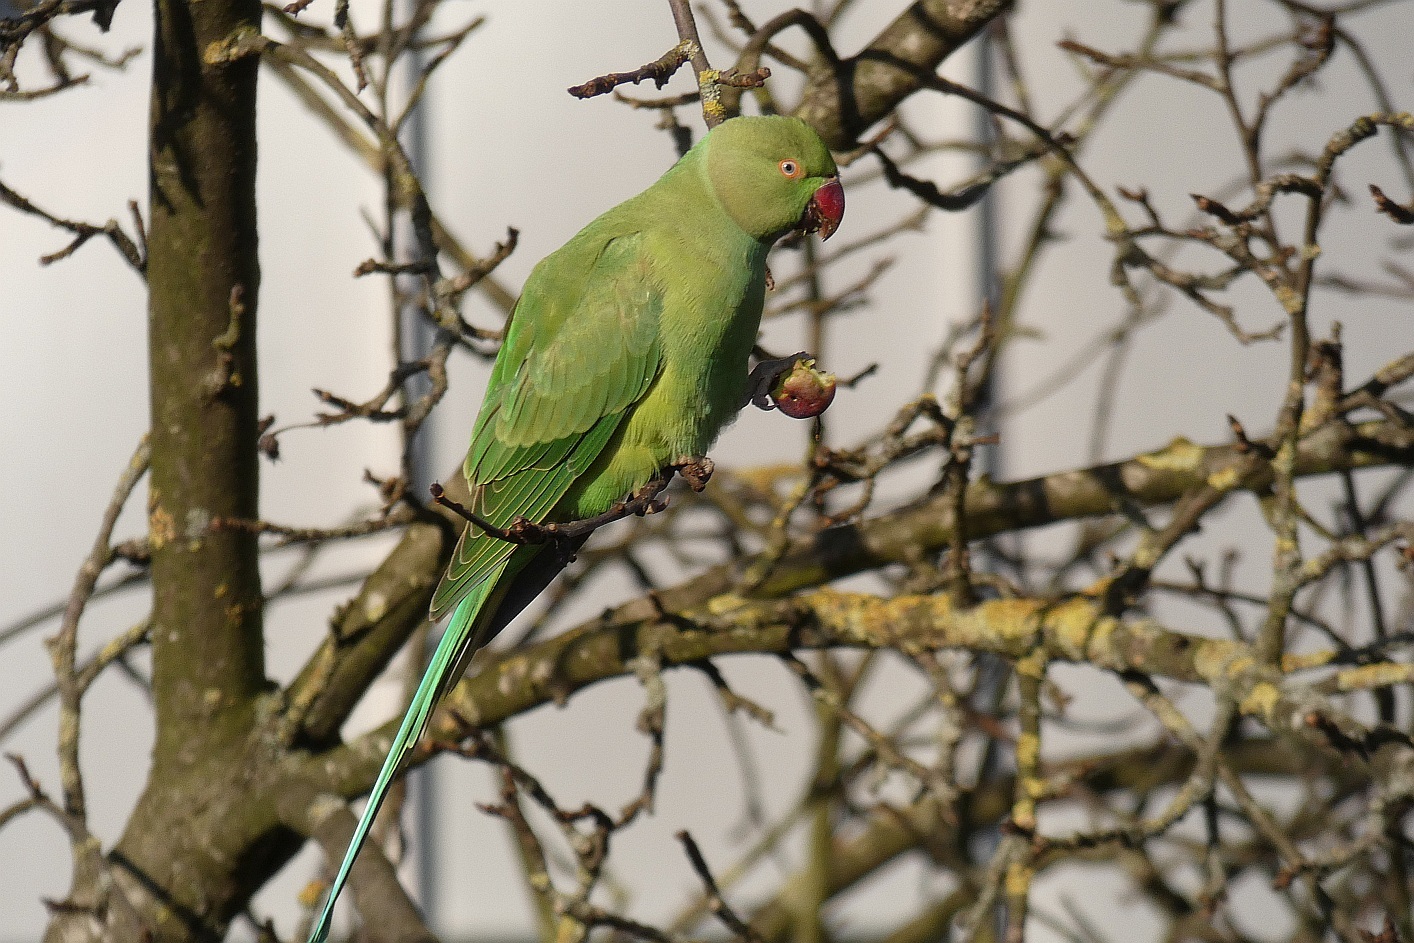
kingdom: Animalia
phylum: Chordata
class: Aves
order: Psittaciformes
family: Psittacidae
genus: Psittacula
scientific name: Psittacula krameri
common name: Rose-ringed parakeet
